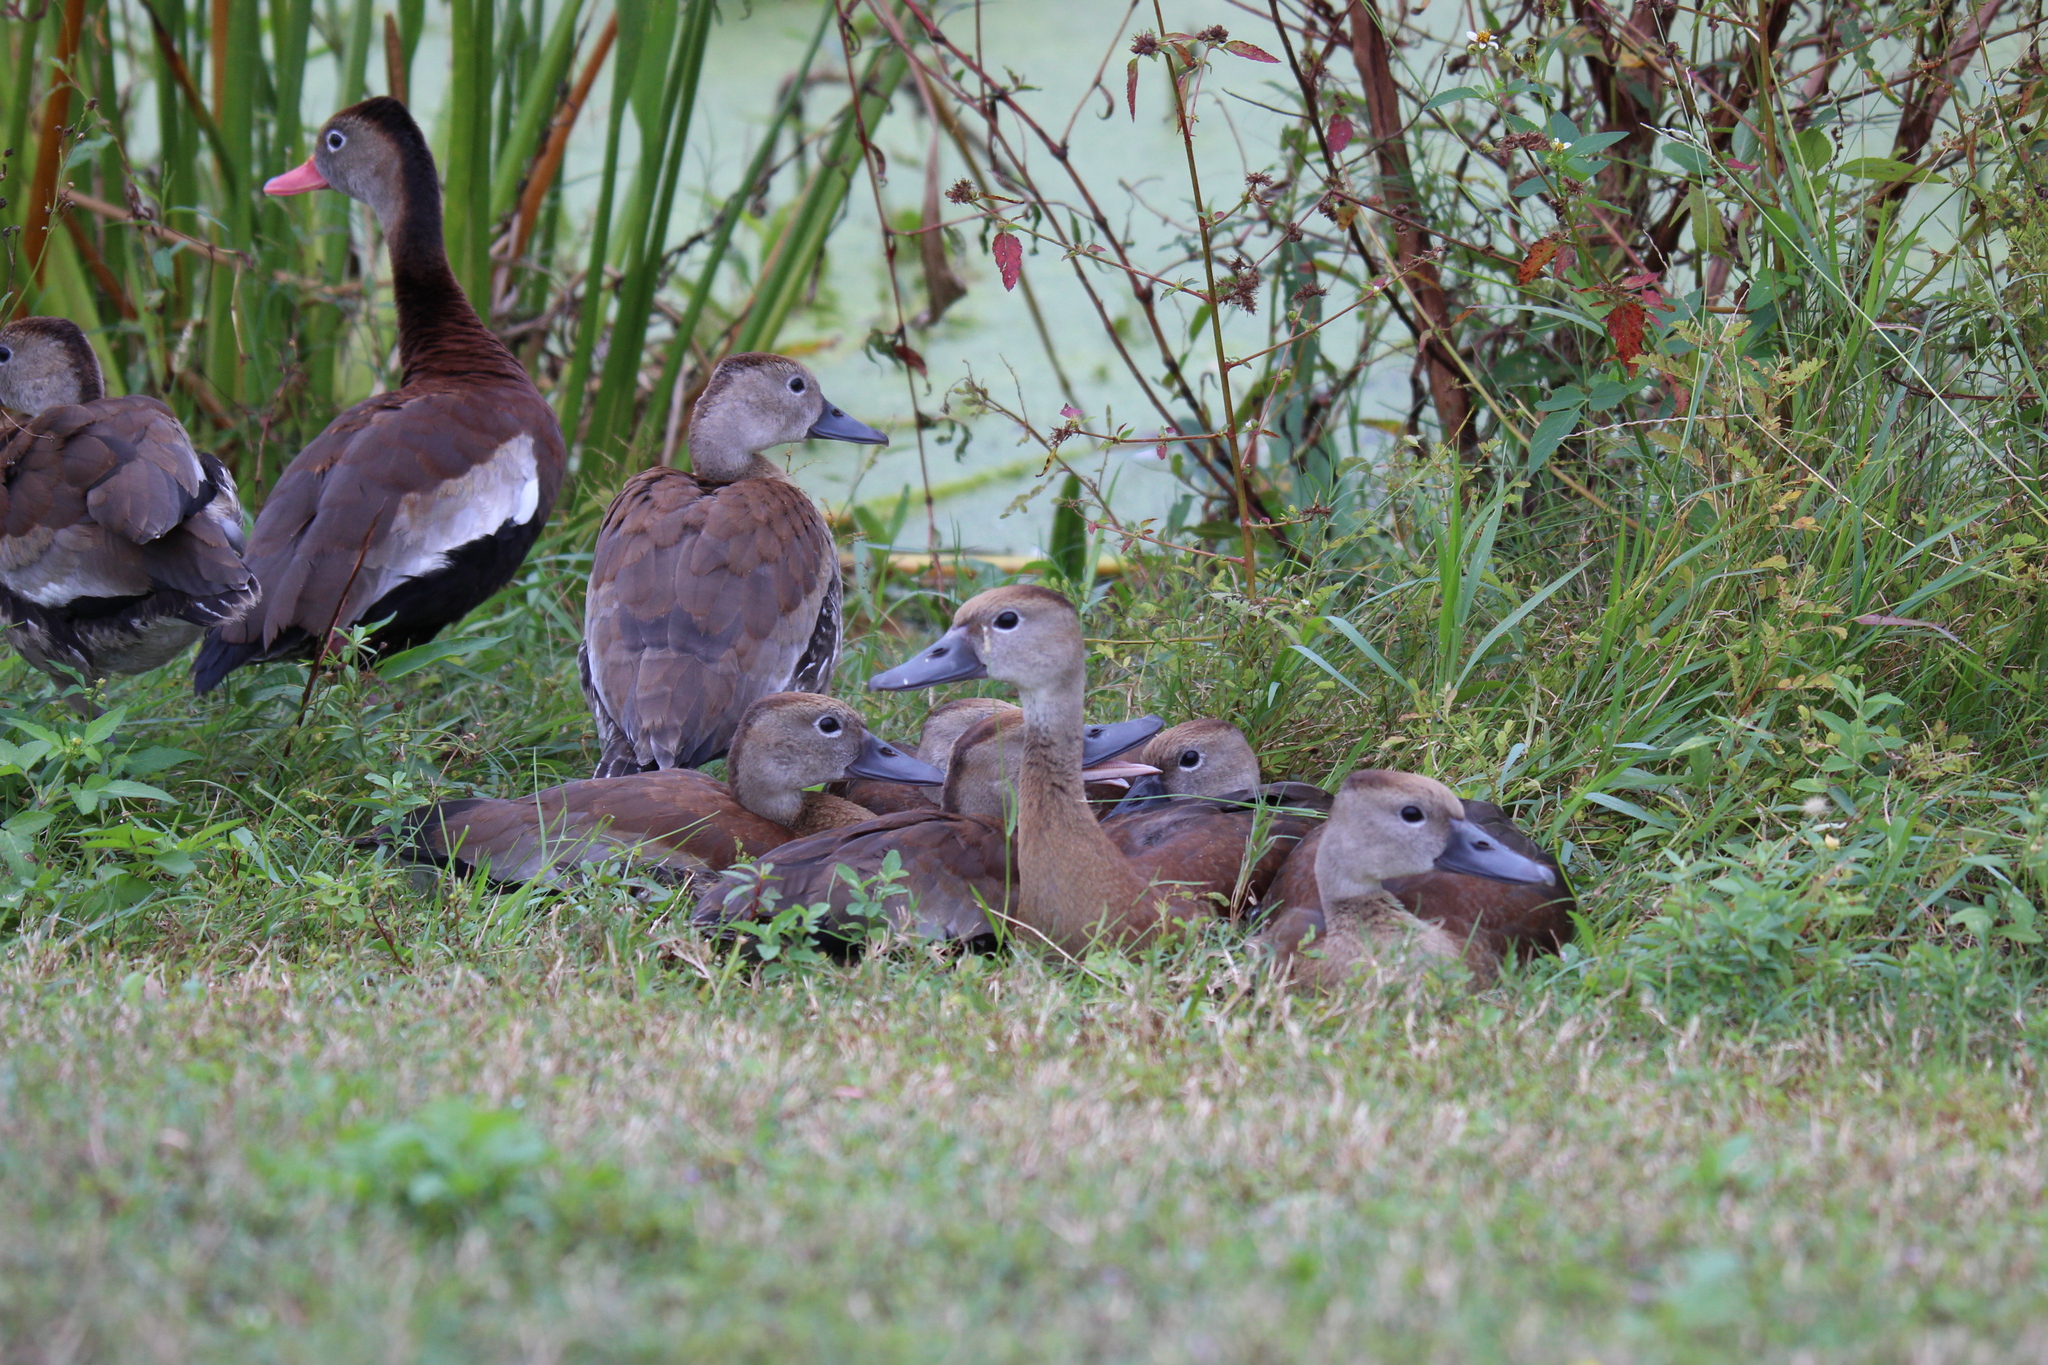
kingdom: Animalia
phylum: Chordata
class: Aves
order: Anseriformes
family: Anatidae
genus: Dendrocygna
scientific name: Dendrocygna autumnalis
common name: Black-bellied whistling duck
